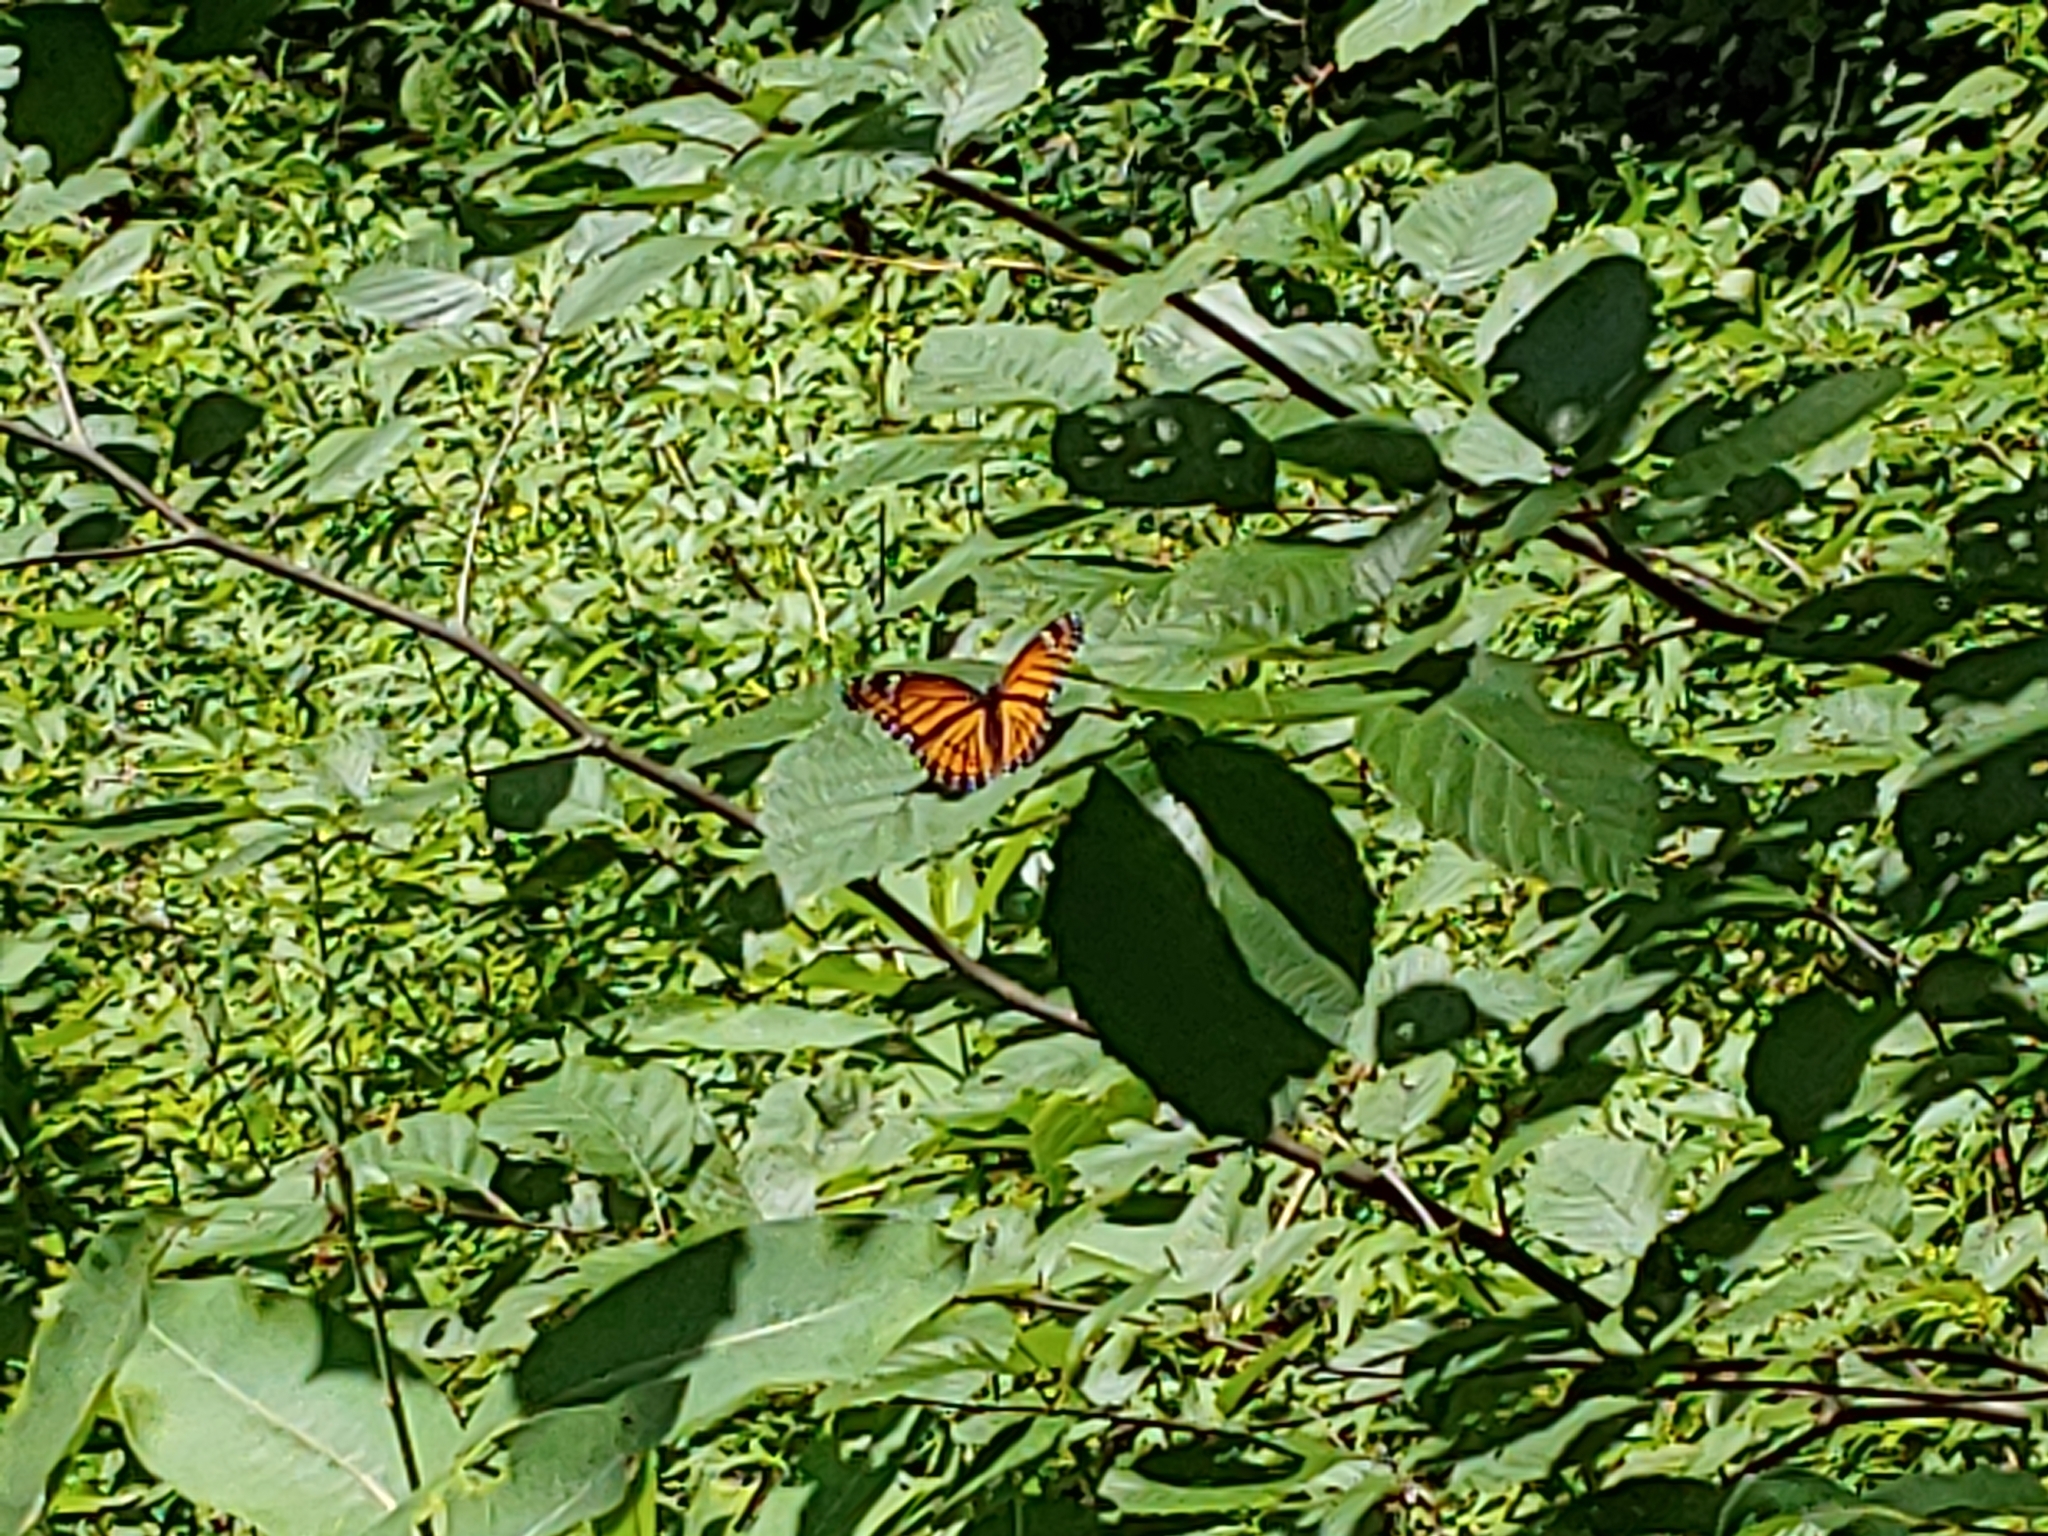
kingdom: Animalia
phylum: Arthropoda
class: Insecta
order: Lepidoptera
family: Nymphalidae
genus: Limenitis
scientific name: Limenitis archippus
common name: Viceroy
